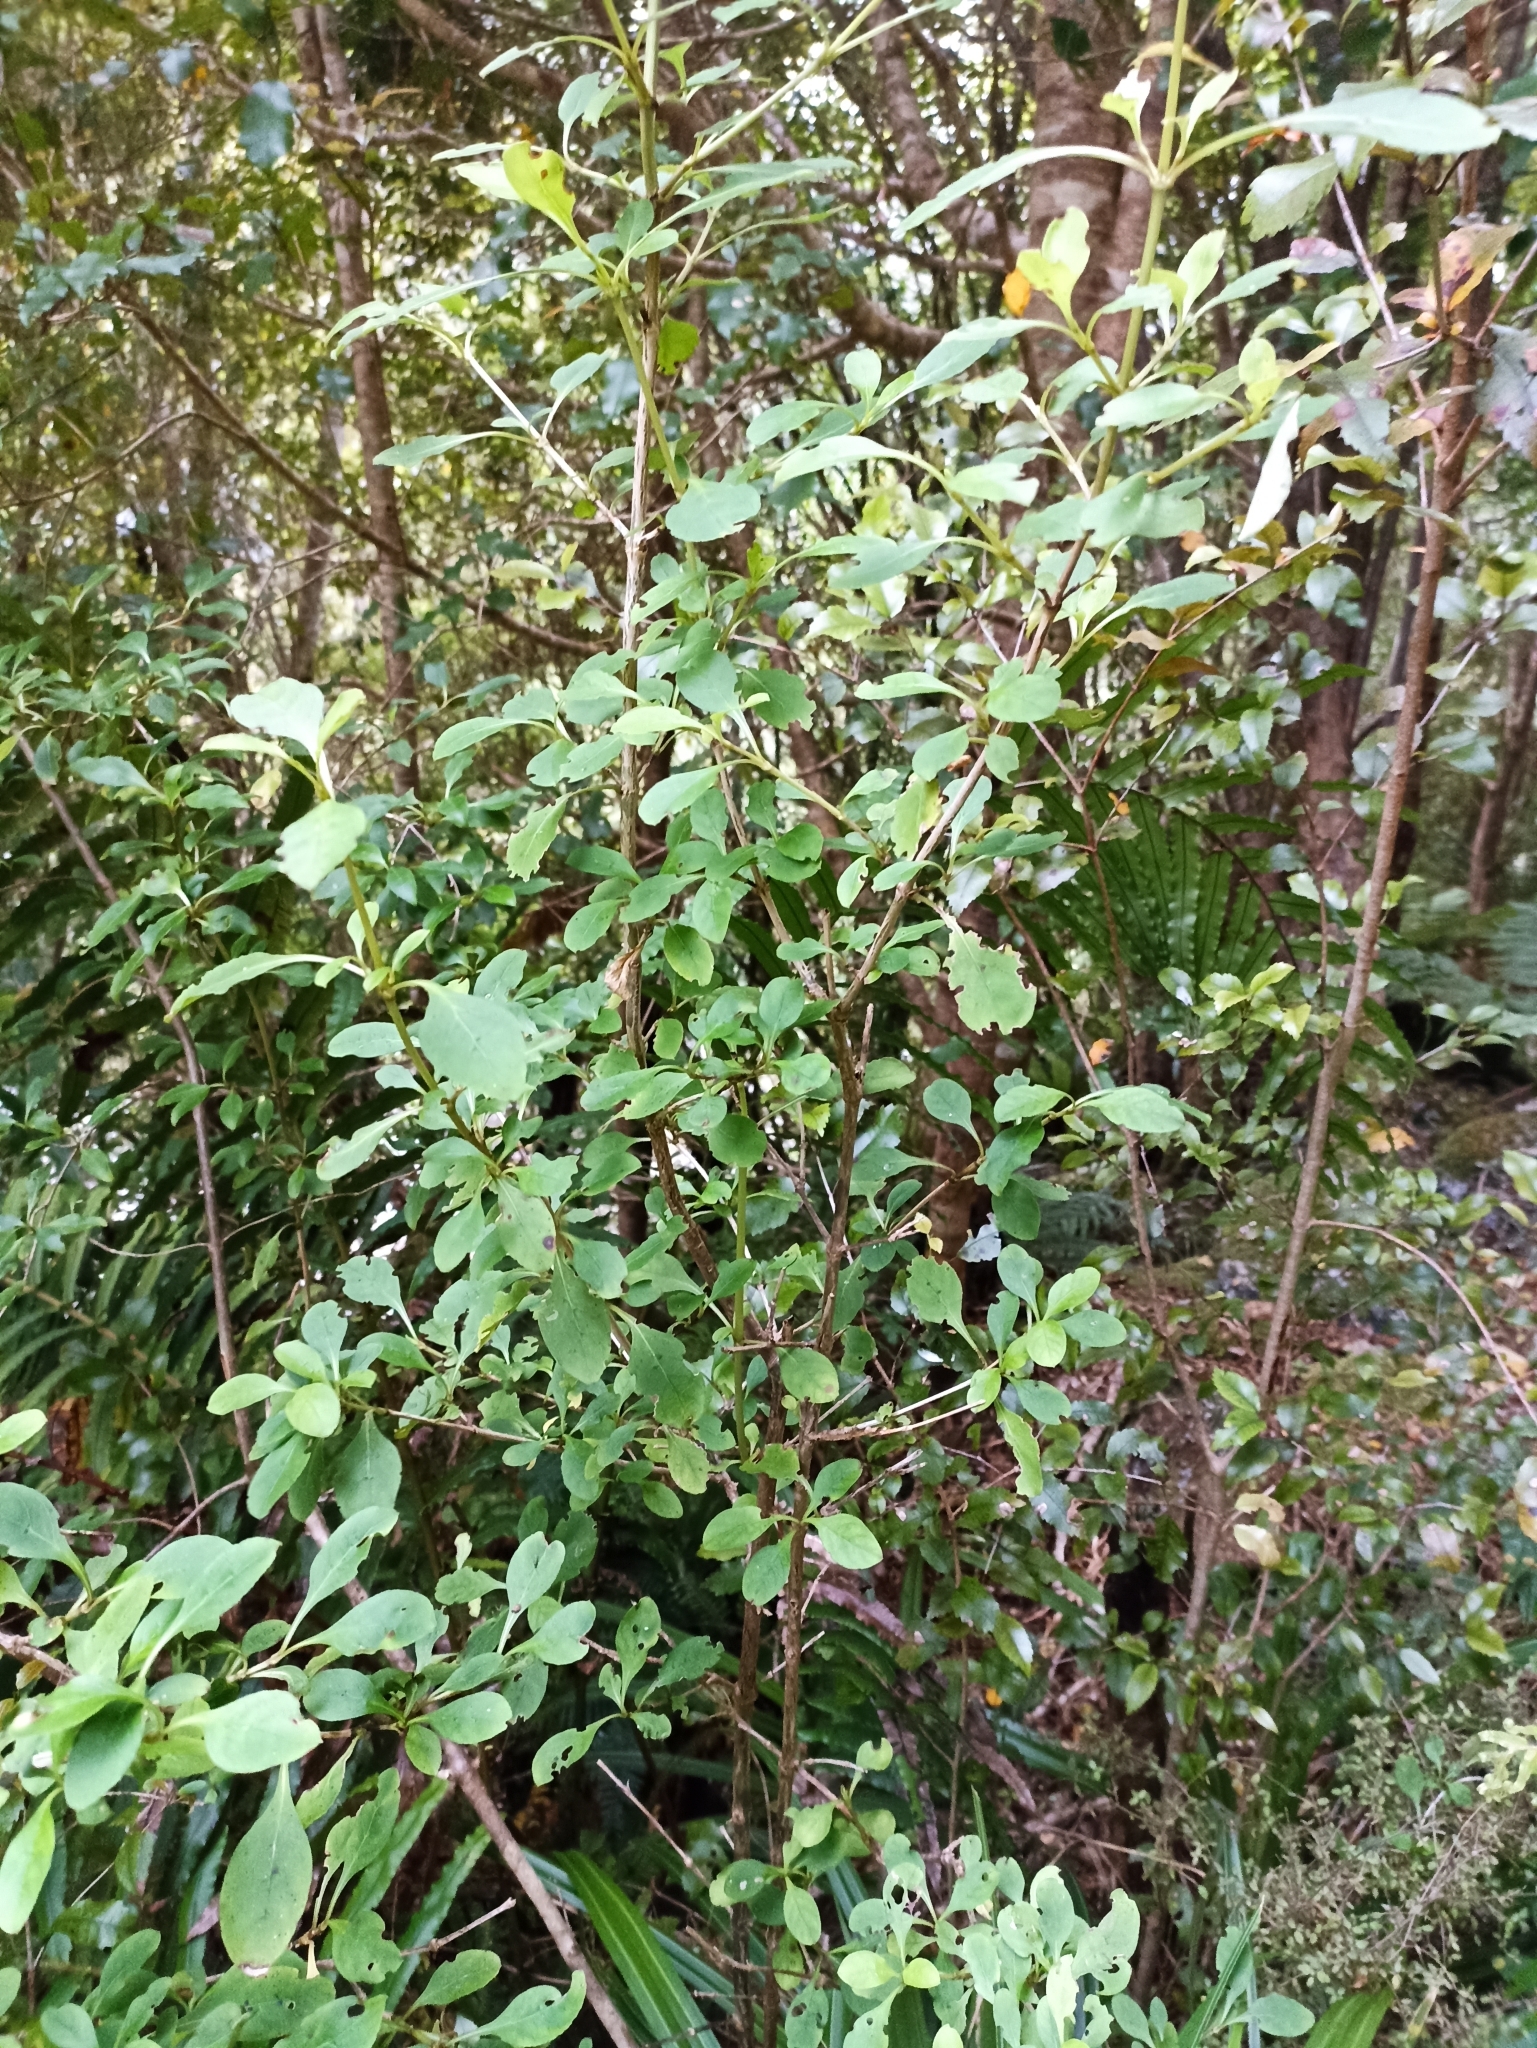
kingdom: Plantae
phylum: Tracheophyta
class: Magnoliopsida
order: Gentianales
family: Rubiaceae
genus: Coprosma
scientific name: Coprosma foetidissima
